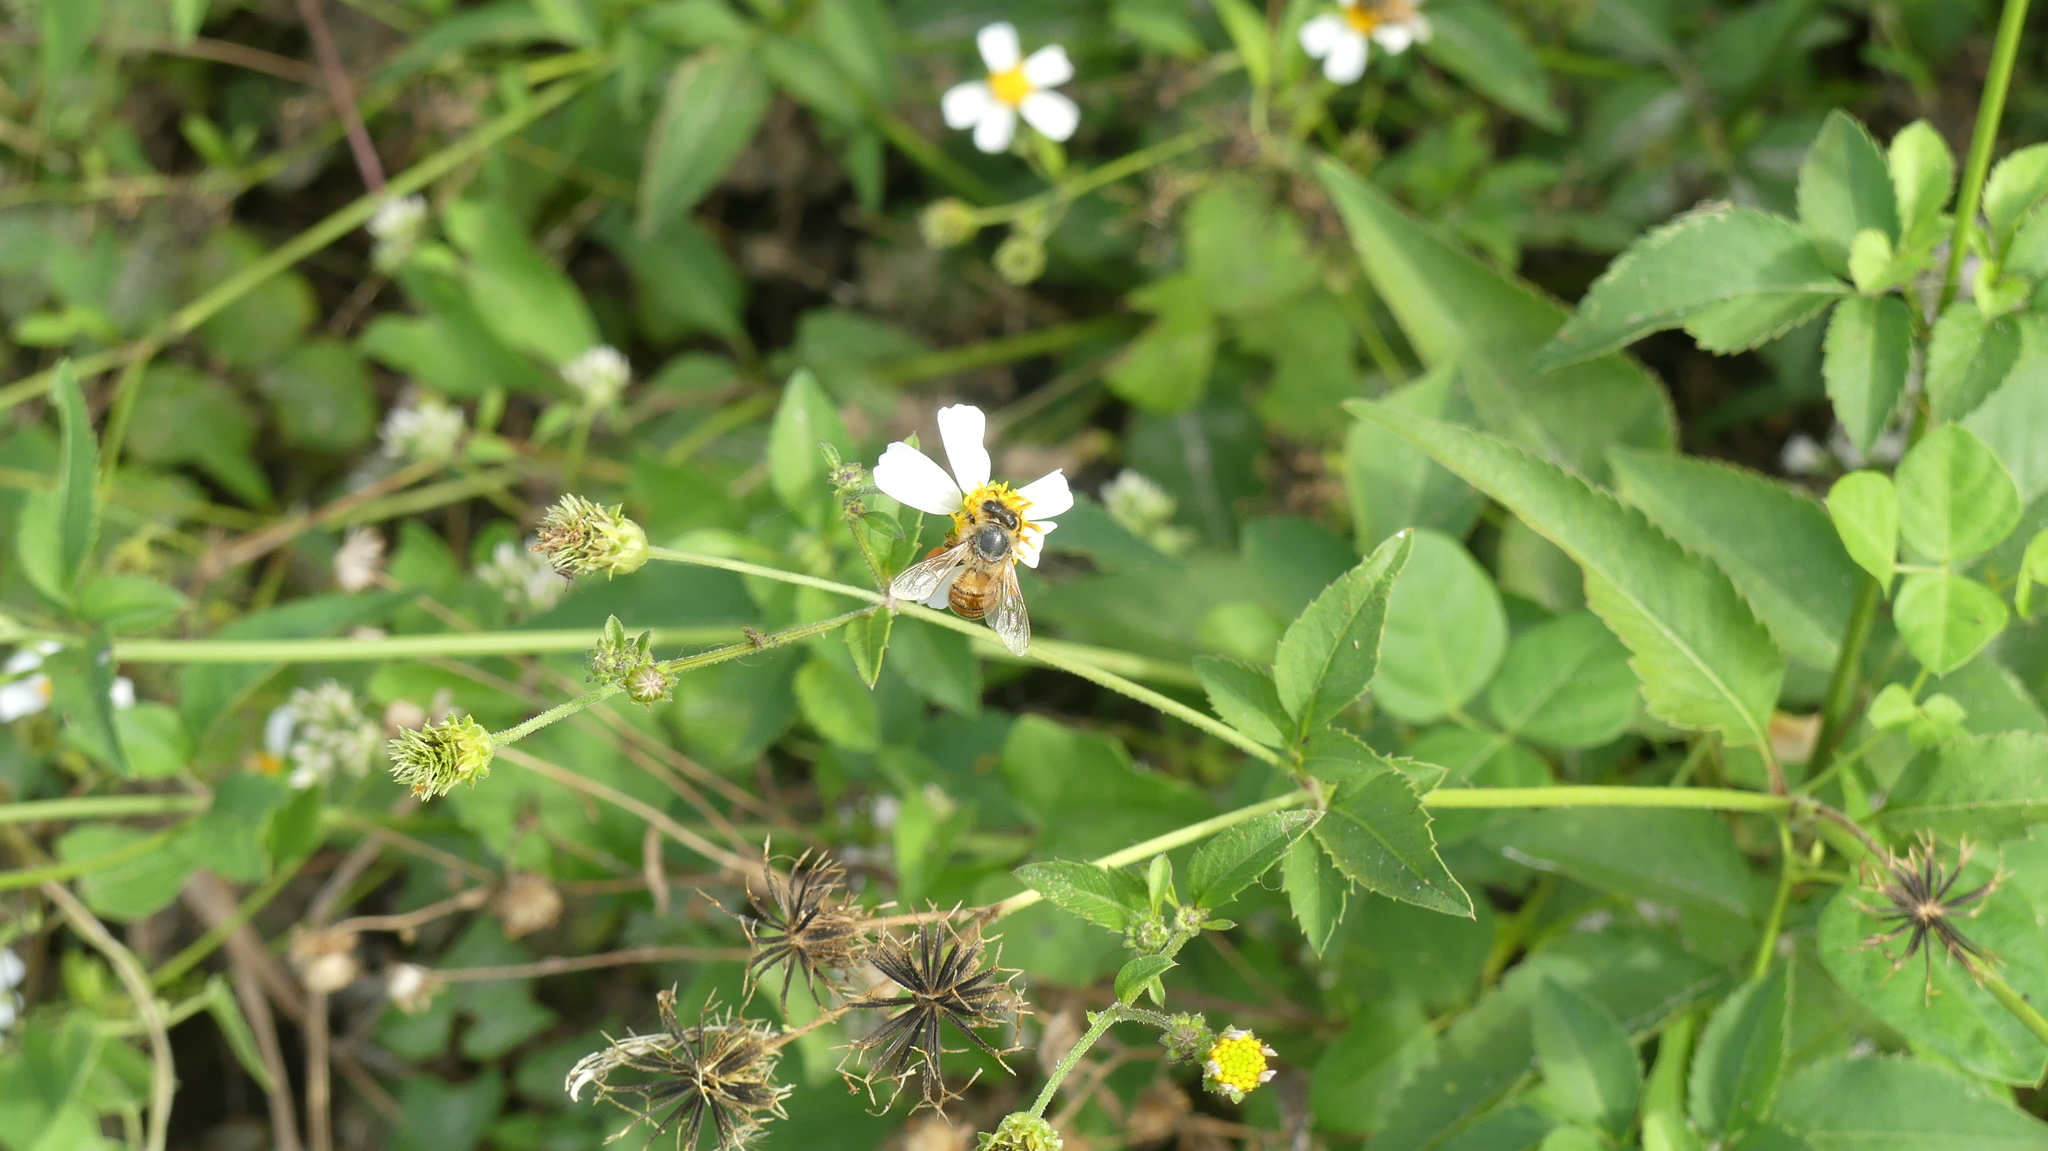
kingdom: Animalia
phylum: Arthropoda
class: Insecta
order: Lepidoptera
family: Hesperiidae
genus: Urbanus
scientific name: Urbanus proteus
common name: Long-tailed skipper
